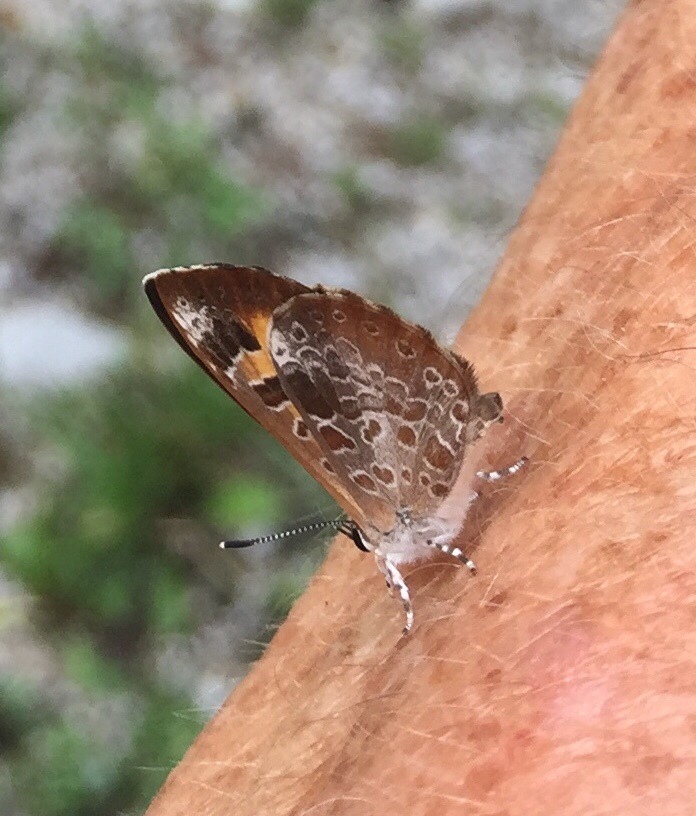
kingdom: Animalia
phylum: Arthropoda
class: Insecta
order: Lepidoptera
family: Lycaenidae
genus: Feniseca
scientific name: Feniseca tarquinius
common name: Harvester
